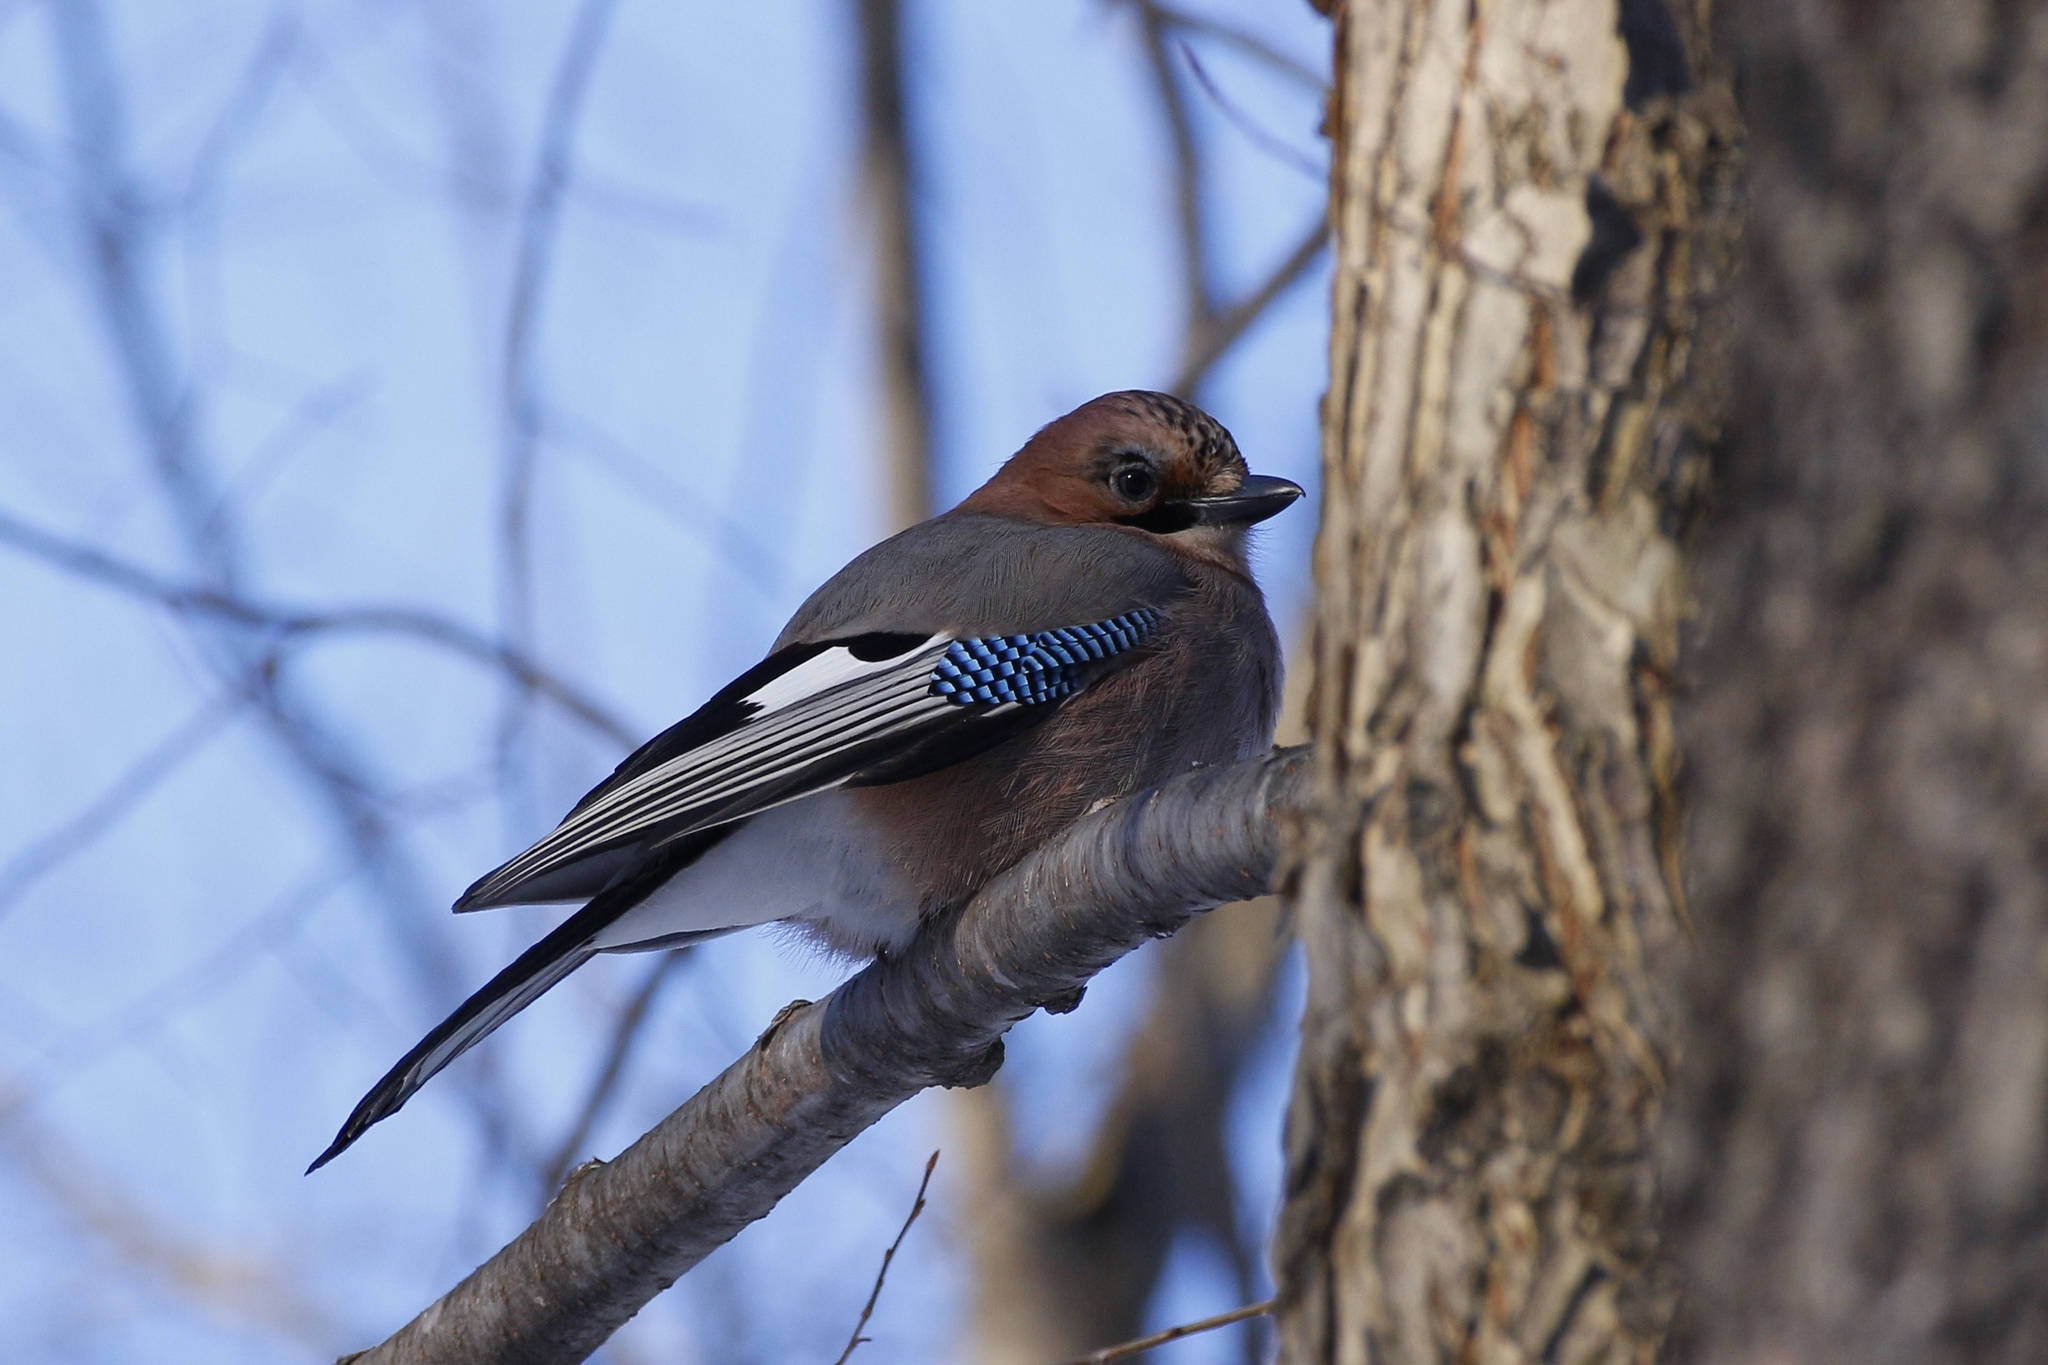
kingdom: Animalia
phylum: Chordata
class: Aves
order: Passeriformes
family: Corvidae
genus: Garrulus
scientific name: Garrulus glandarius
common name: Eurasian jay
